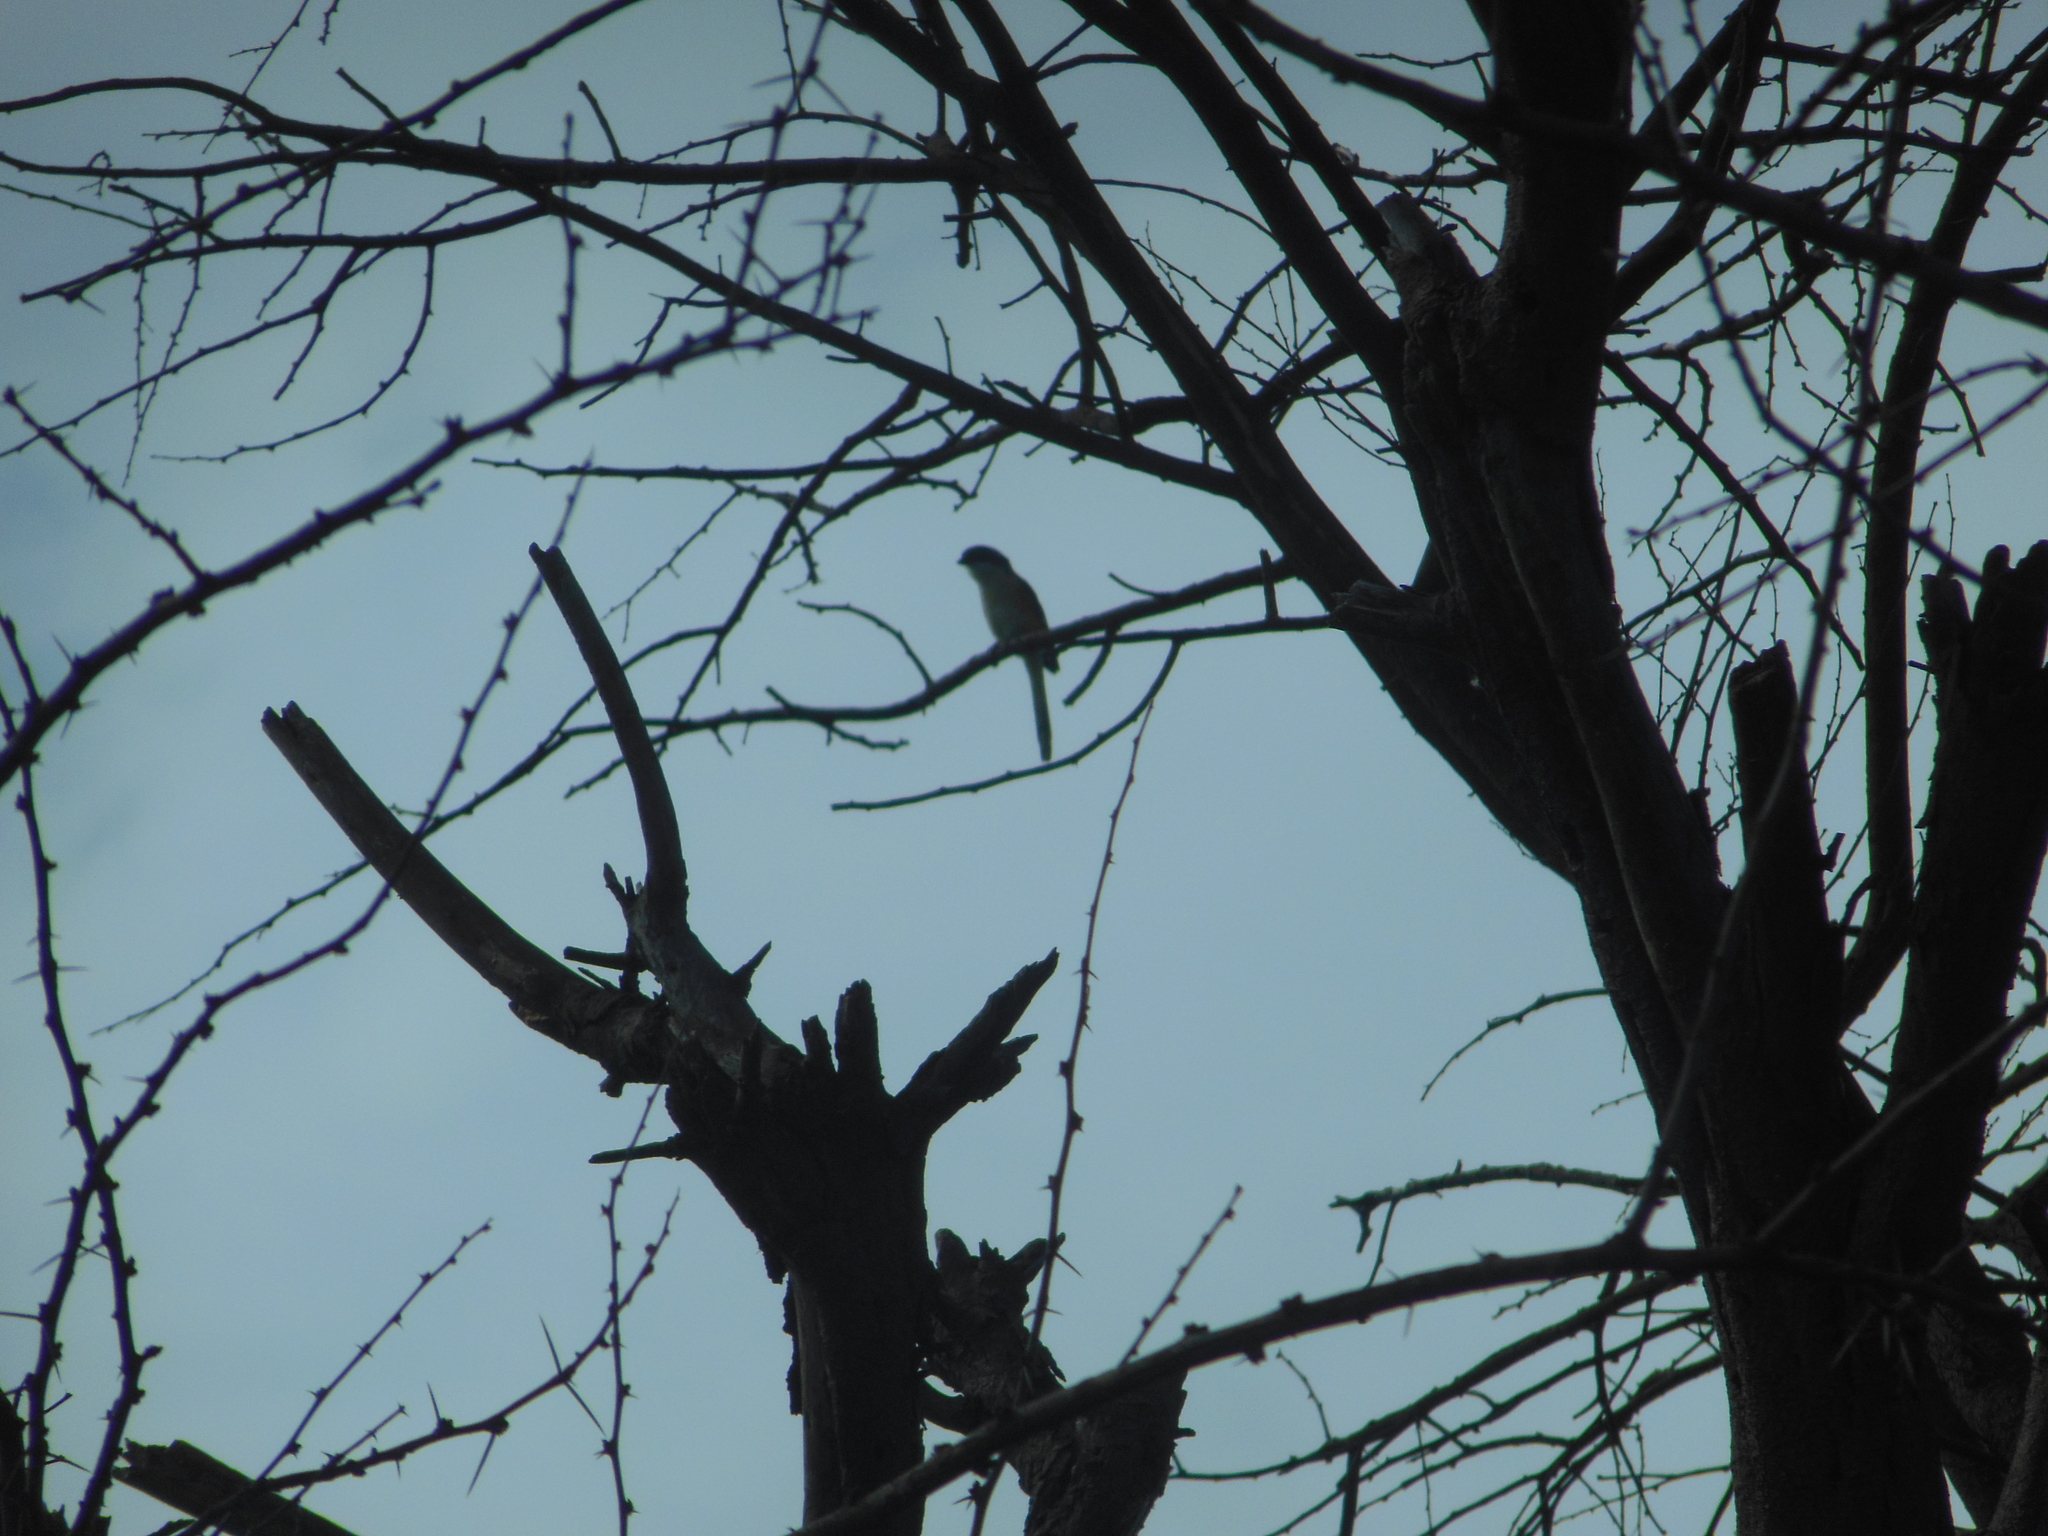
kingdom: Animalia
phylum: Chordata
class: Aves
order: Passeriformes
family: Laniidae
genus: Lanius
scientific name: Lanius schach
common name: Long-tailed shrike
